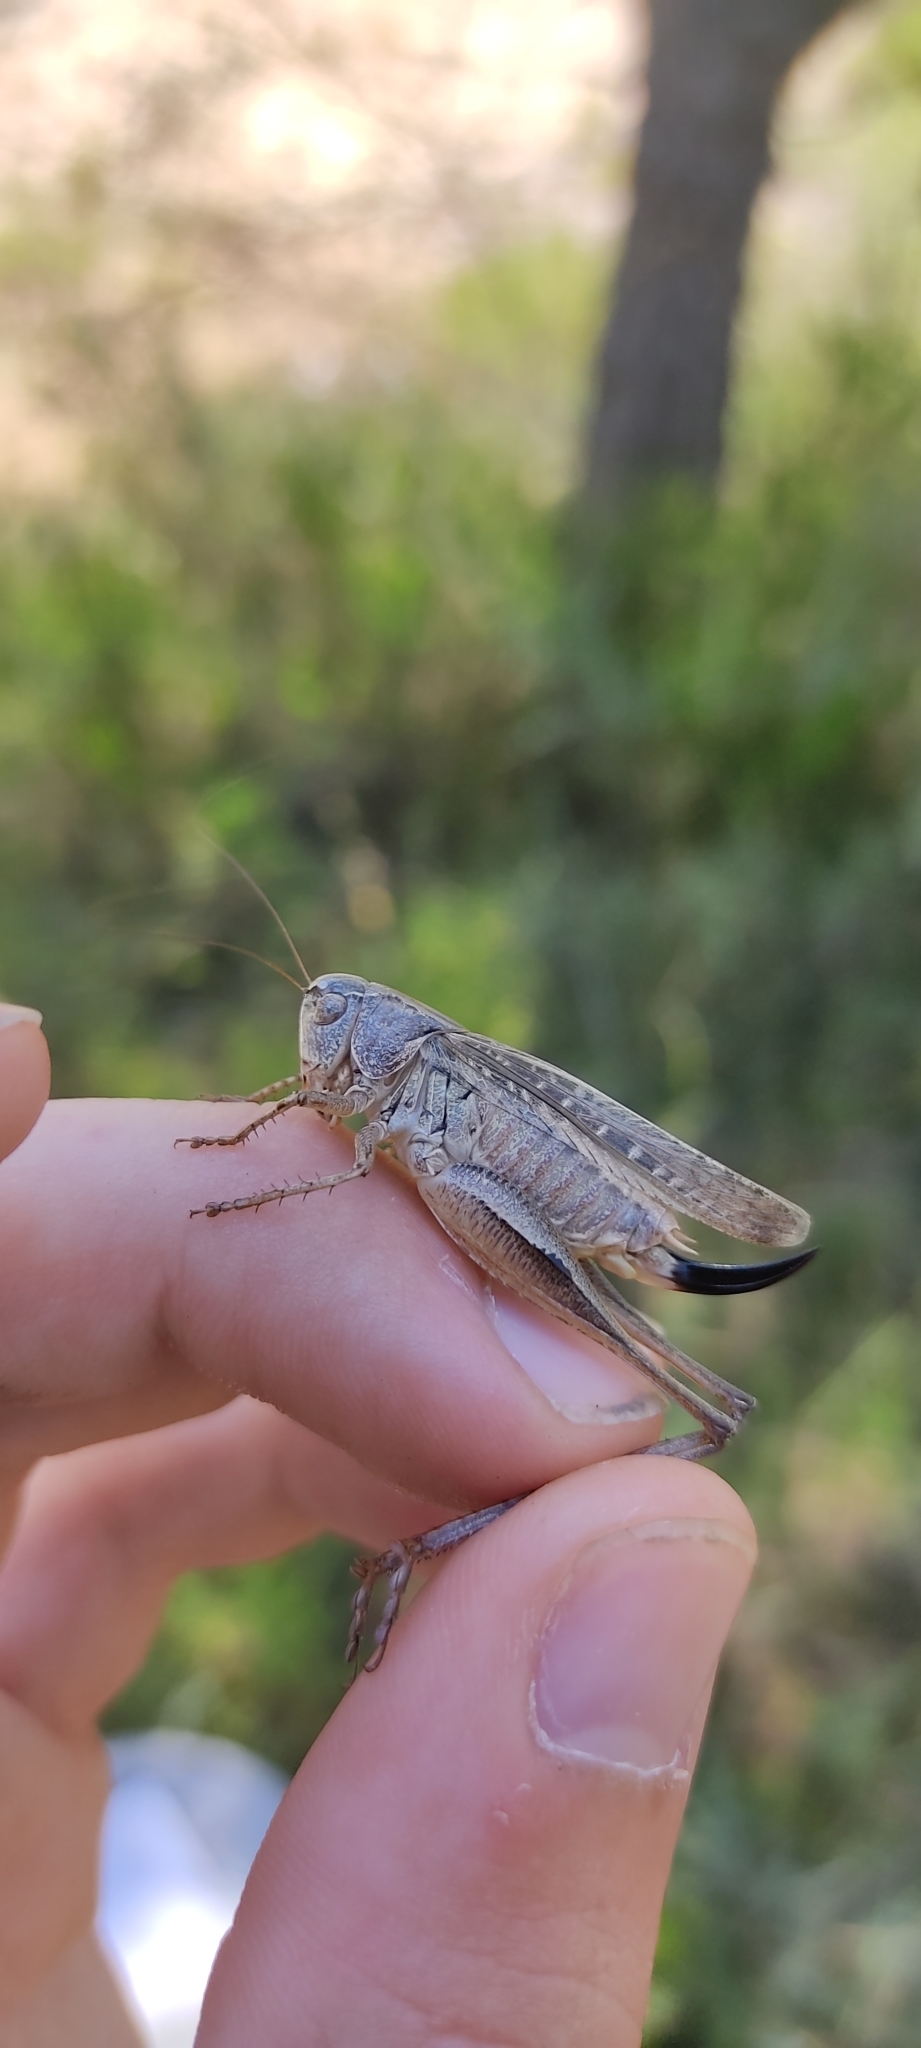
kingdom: Animalia
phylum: Arthropoda
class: Insecta
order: Orthoptera
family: Tettigoniidae
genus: Platycleis
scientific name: Platycleis albopunctata
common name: Grey bush-cricket
